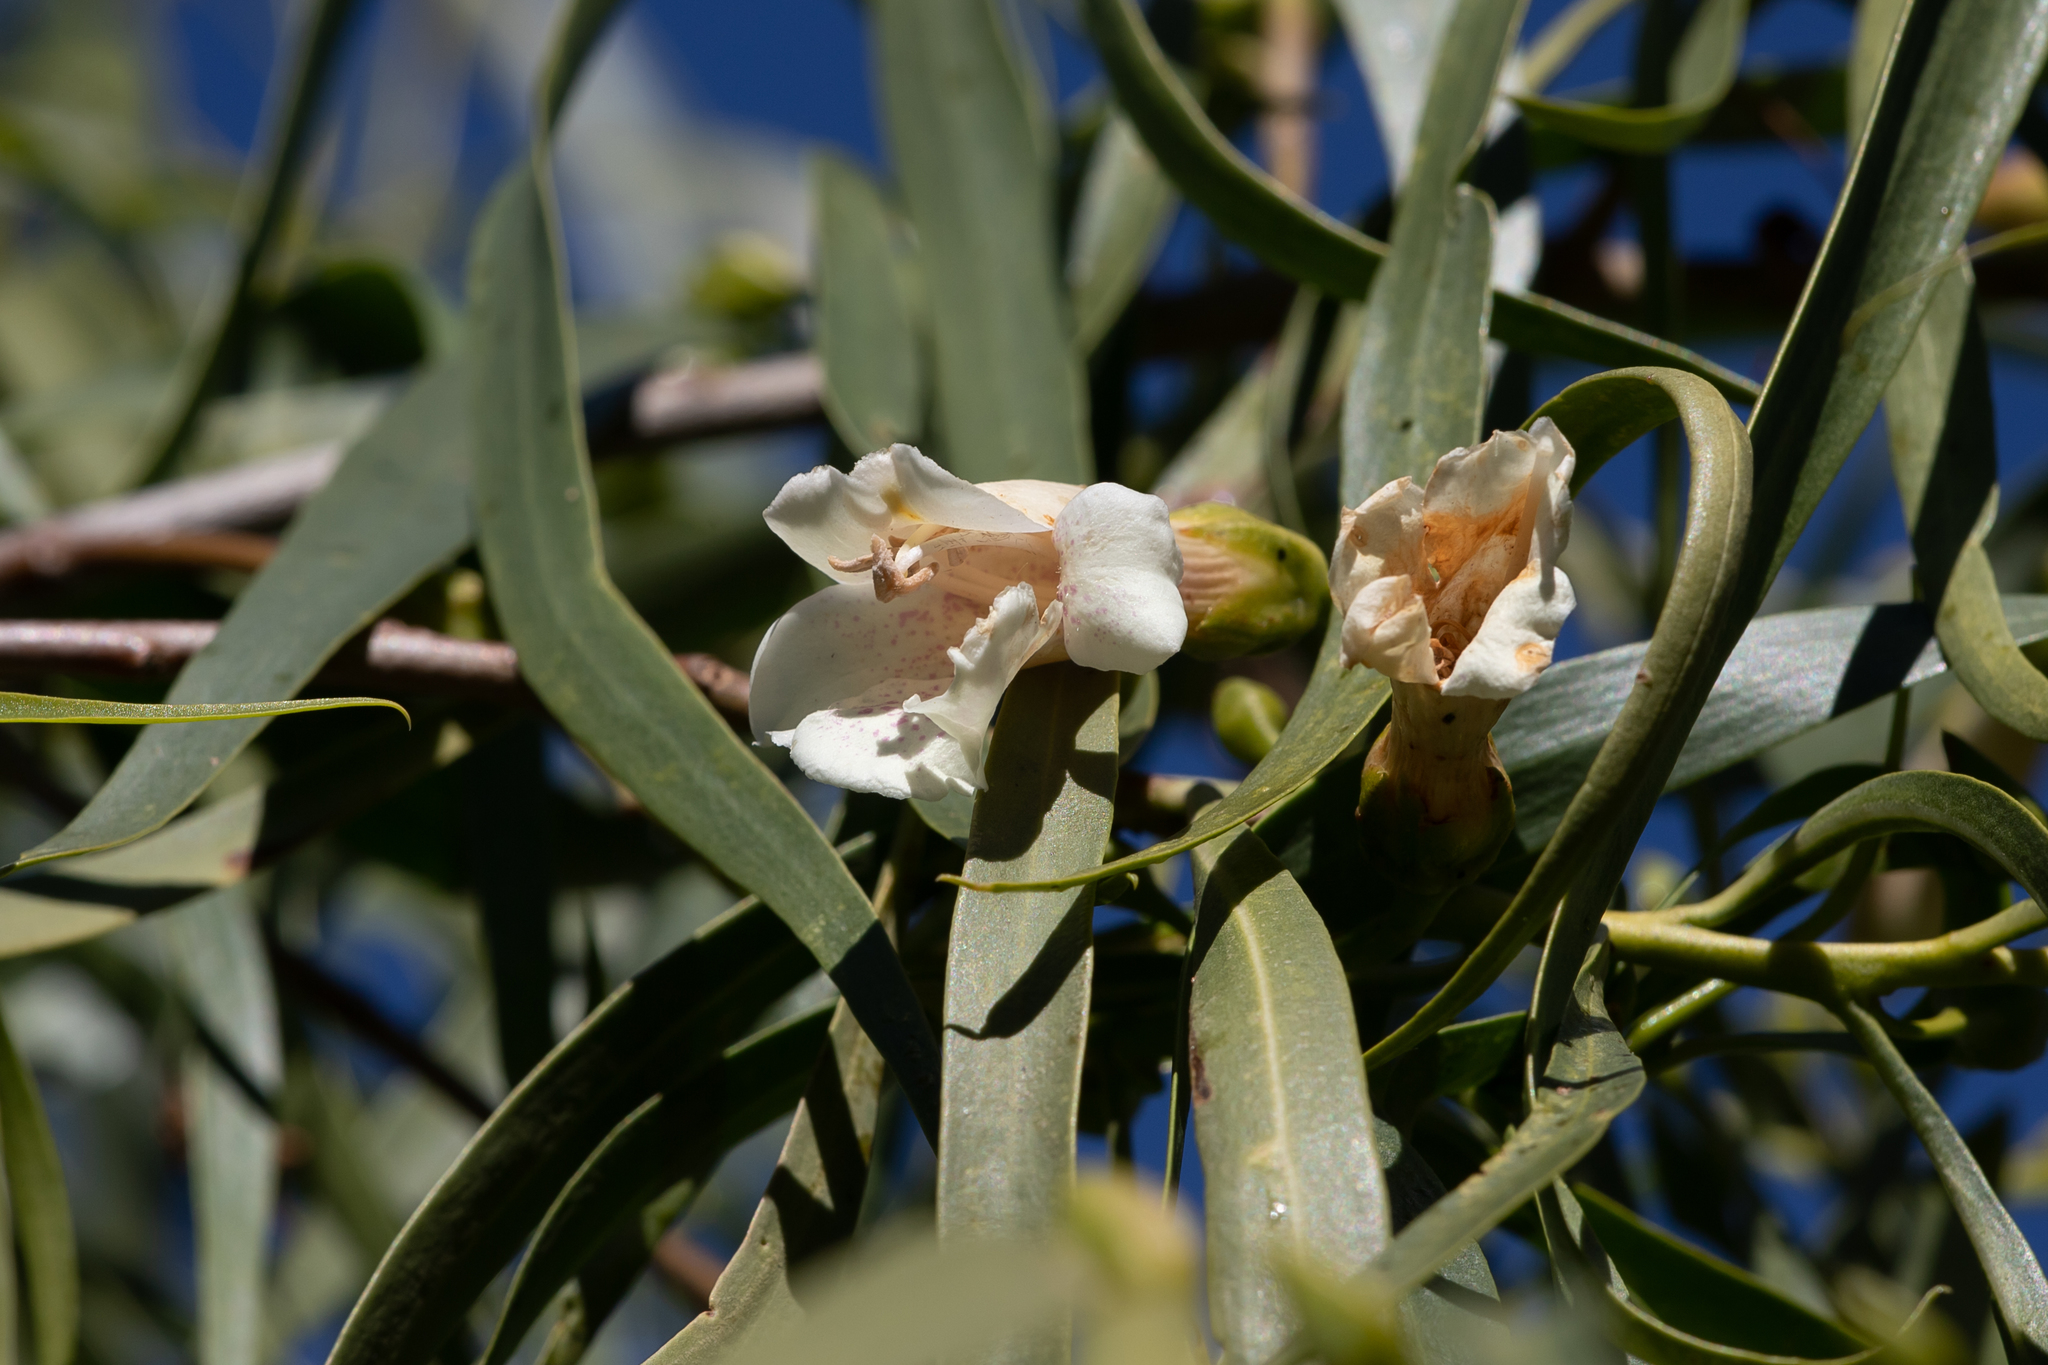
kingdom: Plantae
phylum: Tracheophyta
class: Magnoliopsida
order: Lamiales
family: Scrophulariaceae
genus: Eremophila
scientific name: Eremophila bignoniiflora
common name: Bignonia emu-bush
